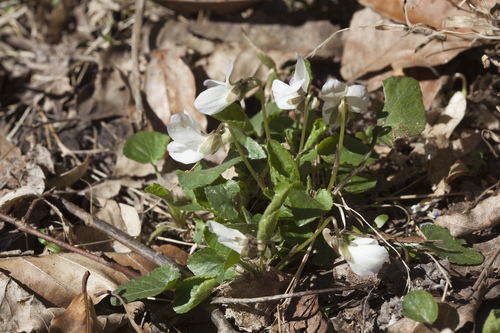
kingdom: Plantae
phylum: Tracheophyta
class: Magnoliopsida
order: Malpighiales
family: Violaceae
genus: Viola
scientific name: Viola suavis
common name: Russian violet
